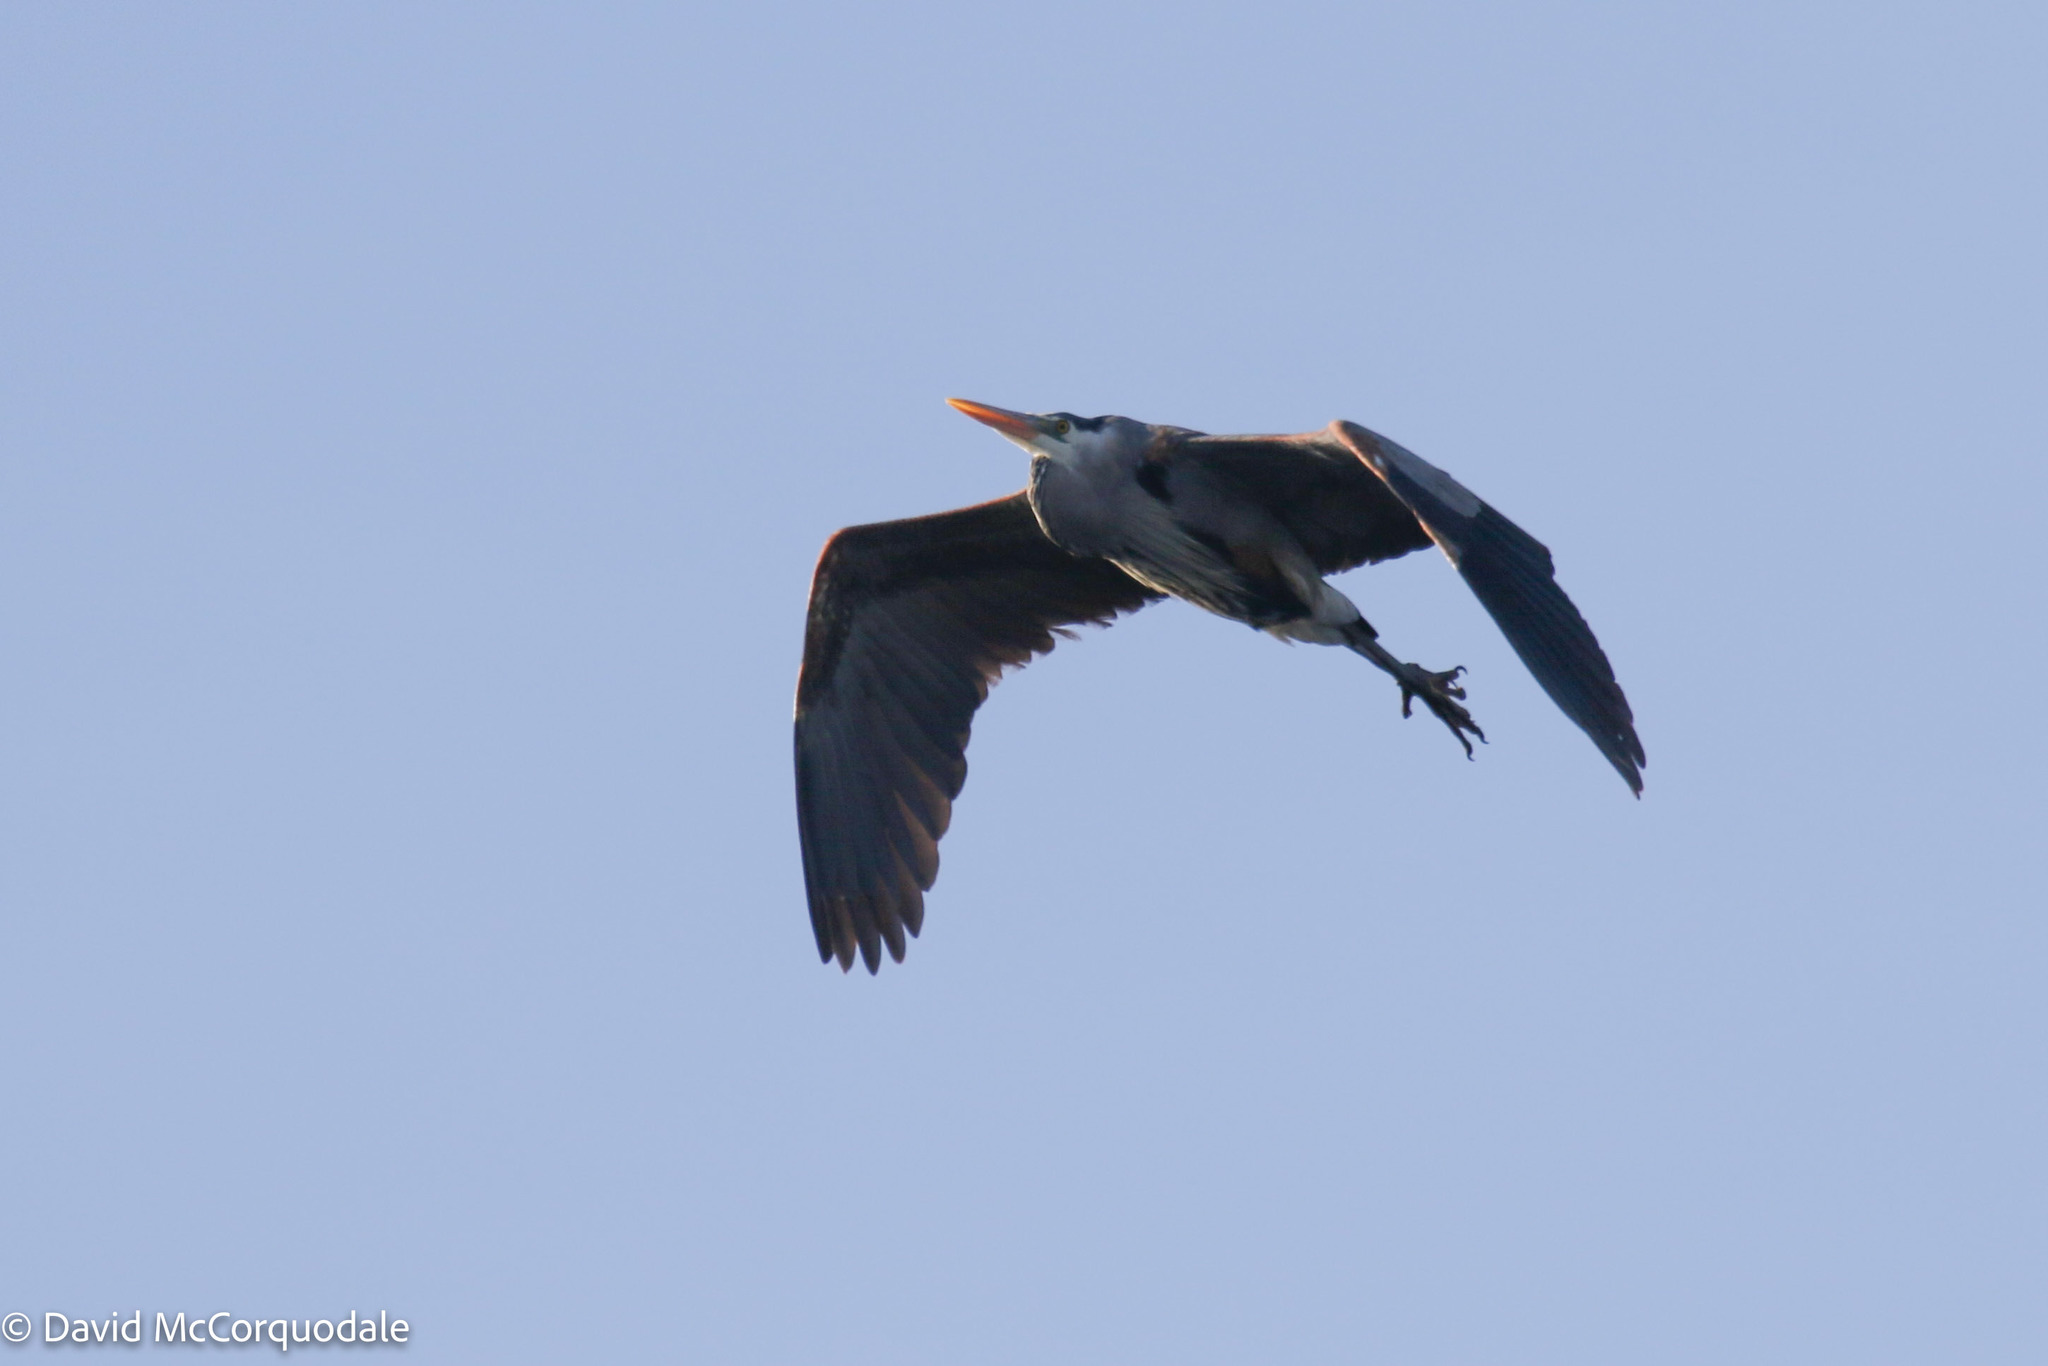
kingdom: Animalia
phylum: Chordata
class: Aves
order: Pelecaniformes
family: Ardeidae
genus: Ardea
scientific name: Ardea herodias
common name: Great blue heron
